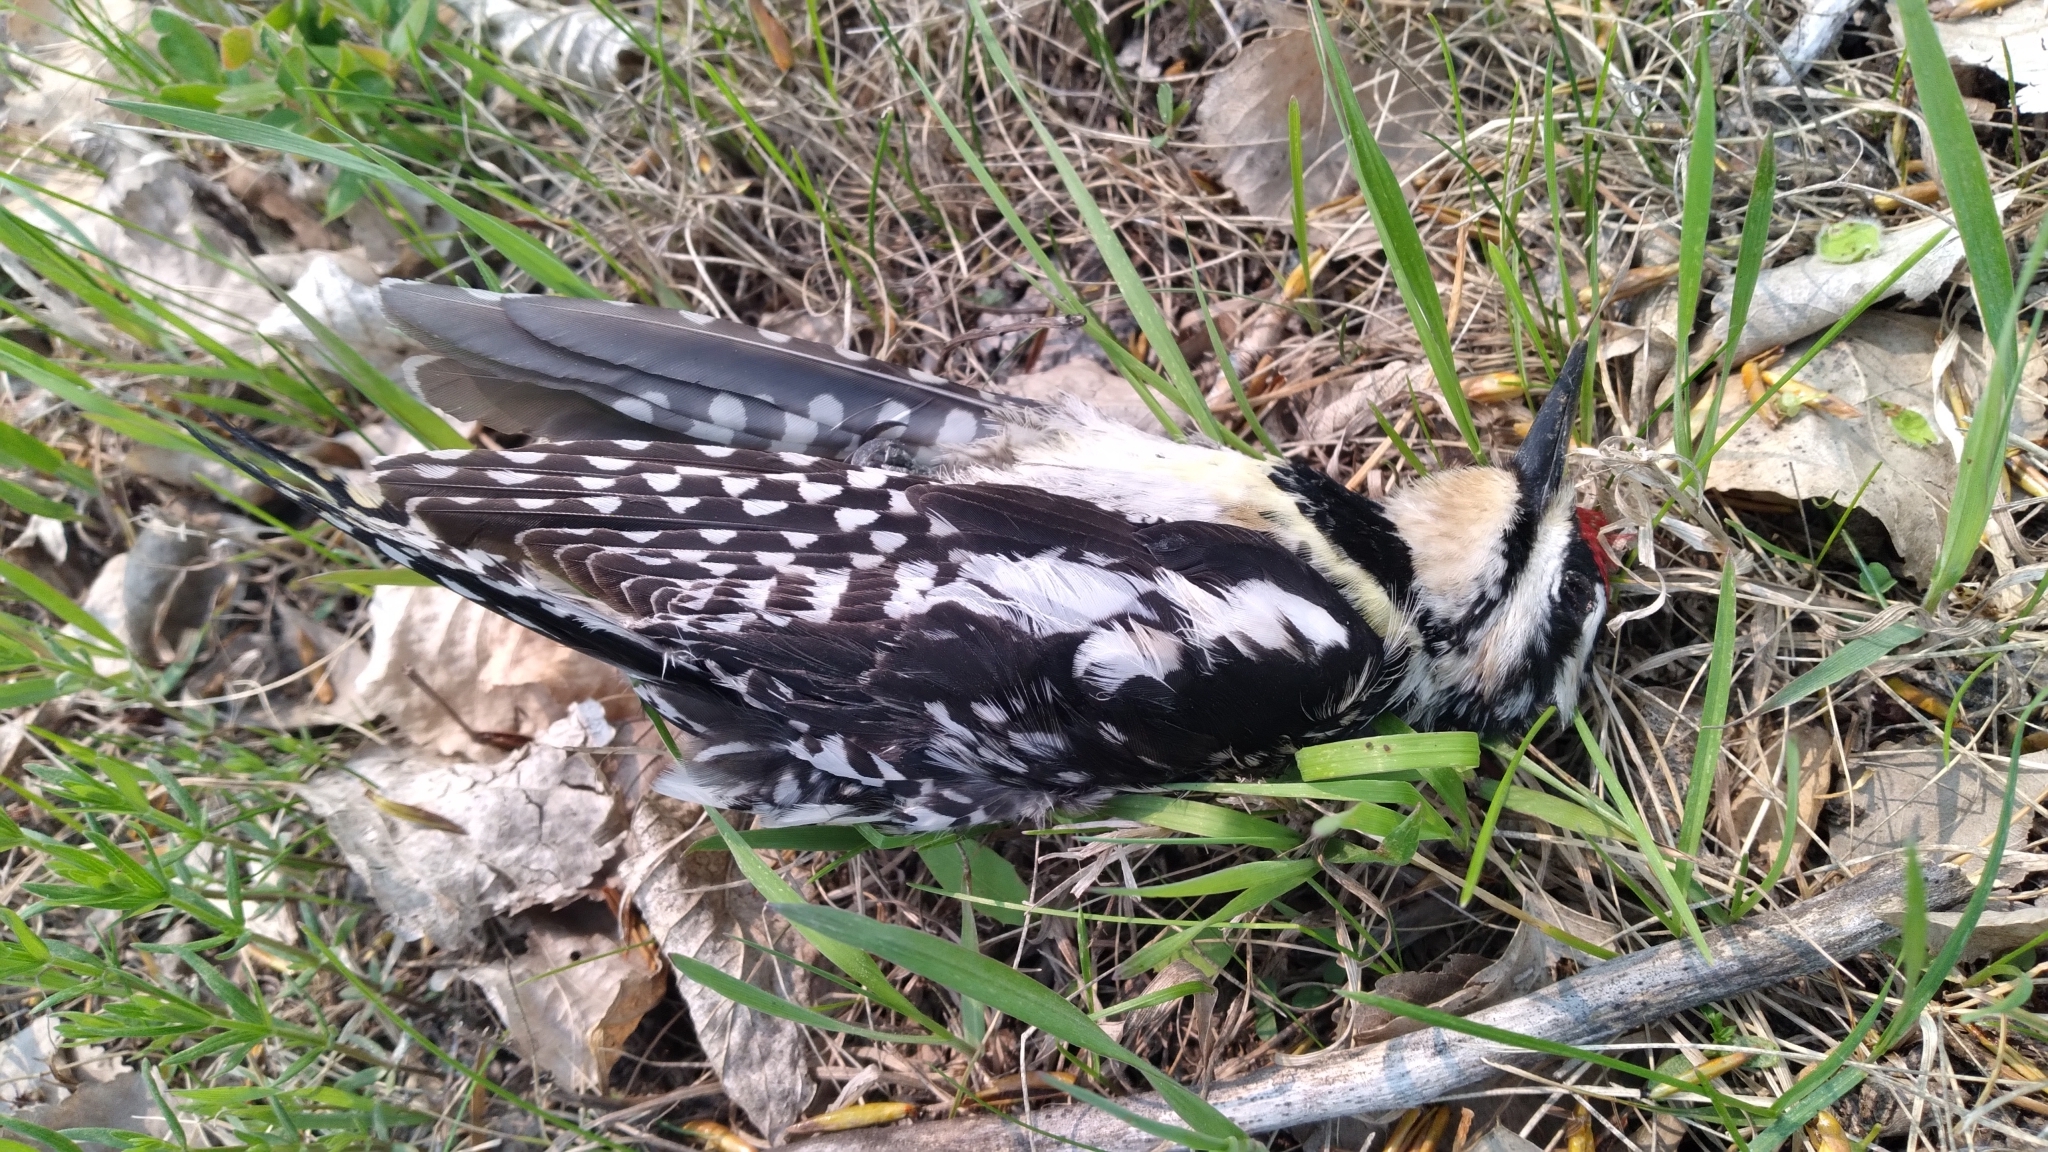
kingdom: Animalia
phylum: Chordata
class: Aves
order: Piciformes
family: Picidae
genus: Sphyrapicus
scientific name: Sphyrapicus varius
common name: Yellow-bellied sapsucker
